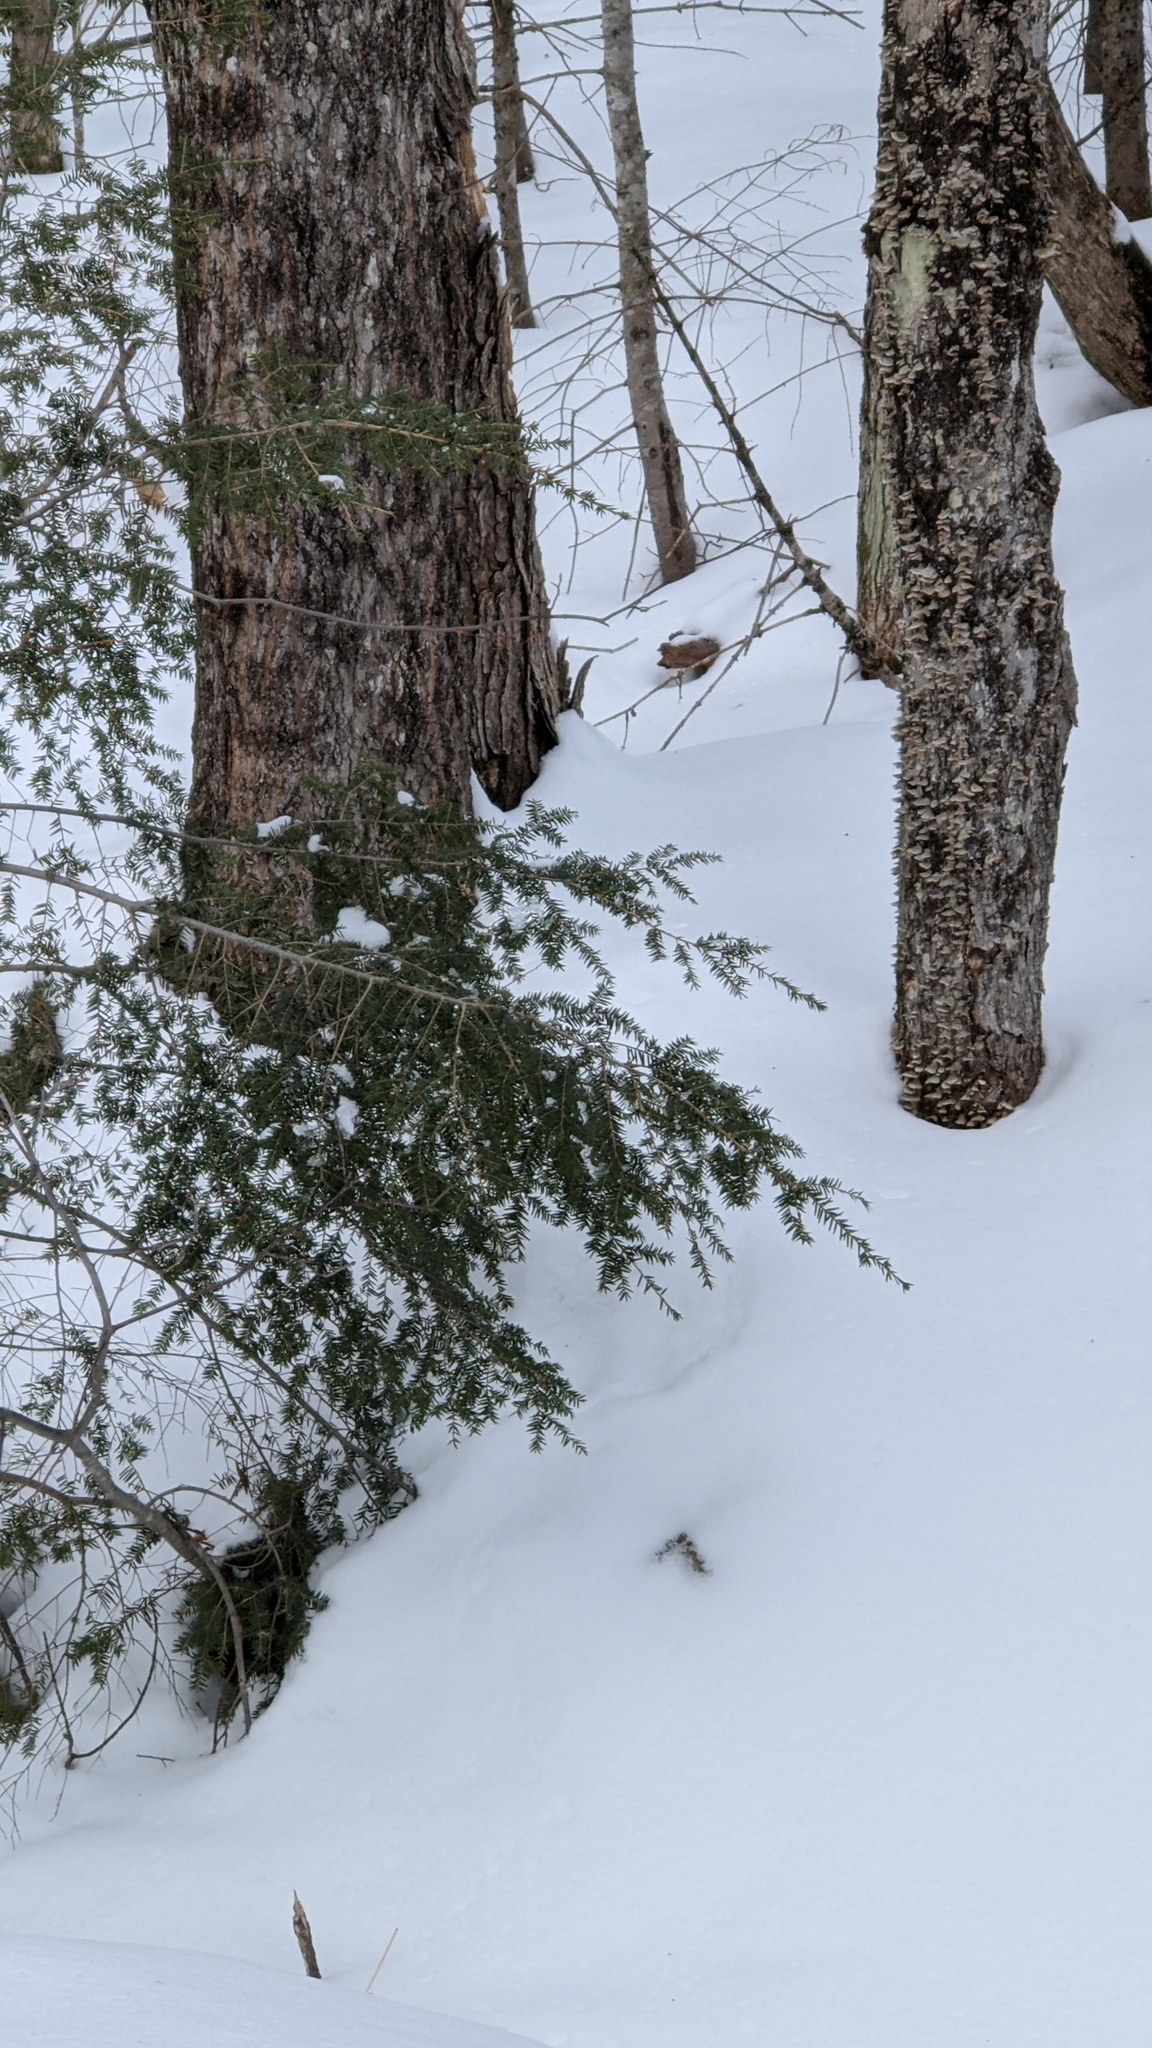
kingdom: Plantae
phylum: Tracheophyta
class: Pinopsida
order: Pinales
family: Pinaceae
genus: Tsuga
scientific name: Tsuga canadensis
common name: Eastern hemlock
